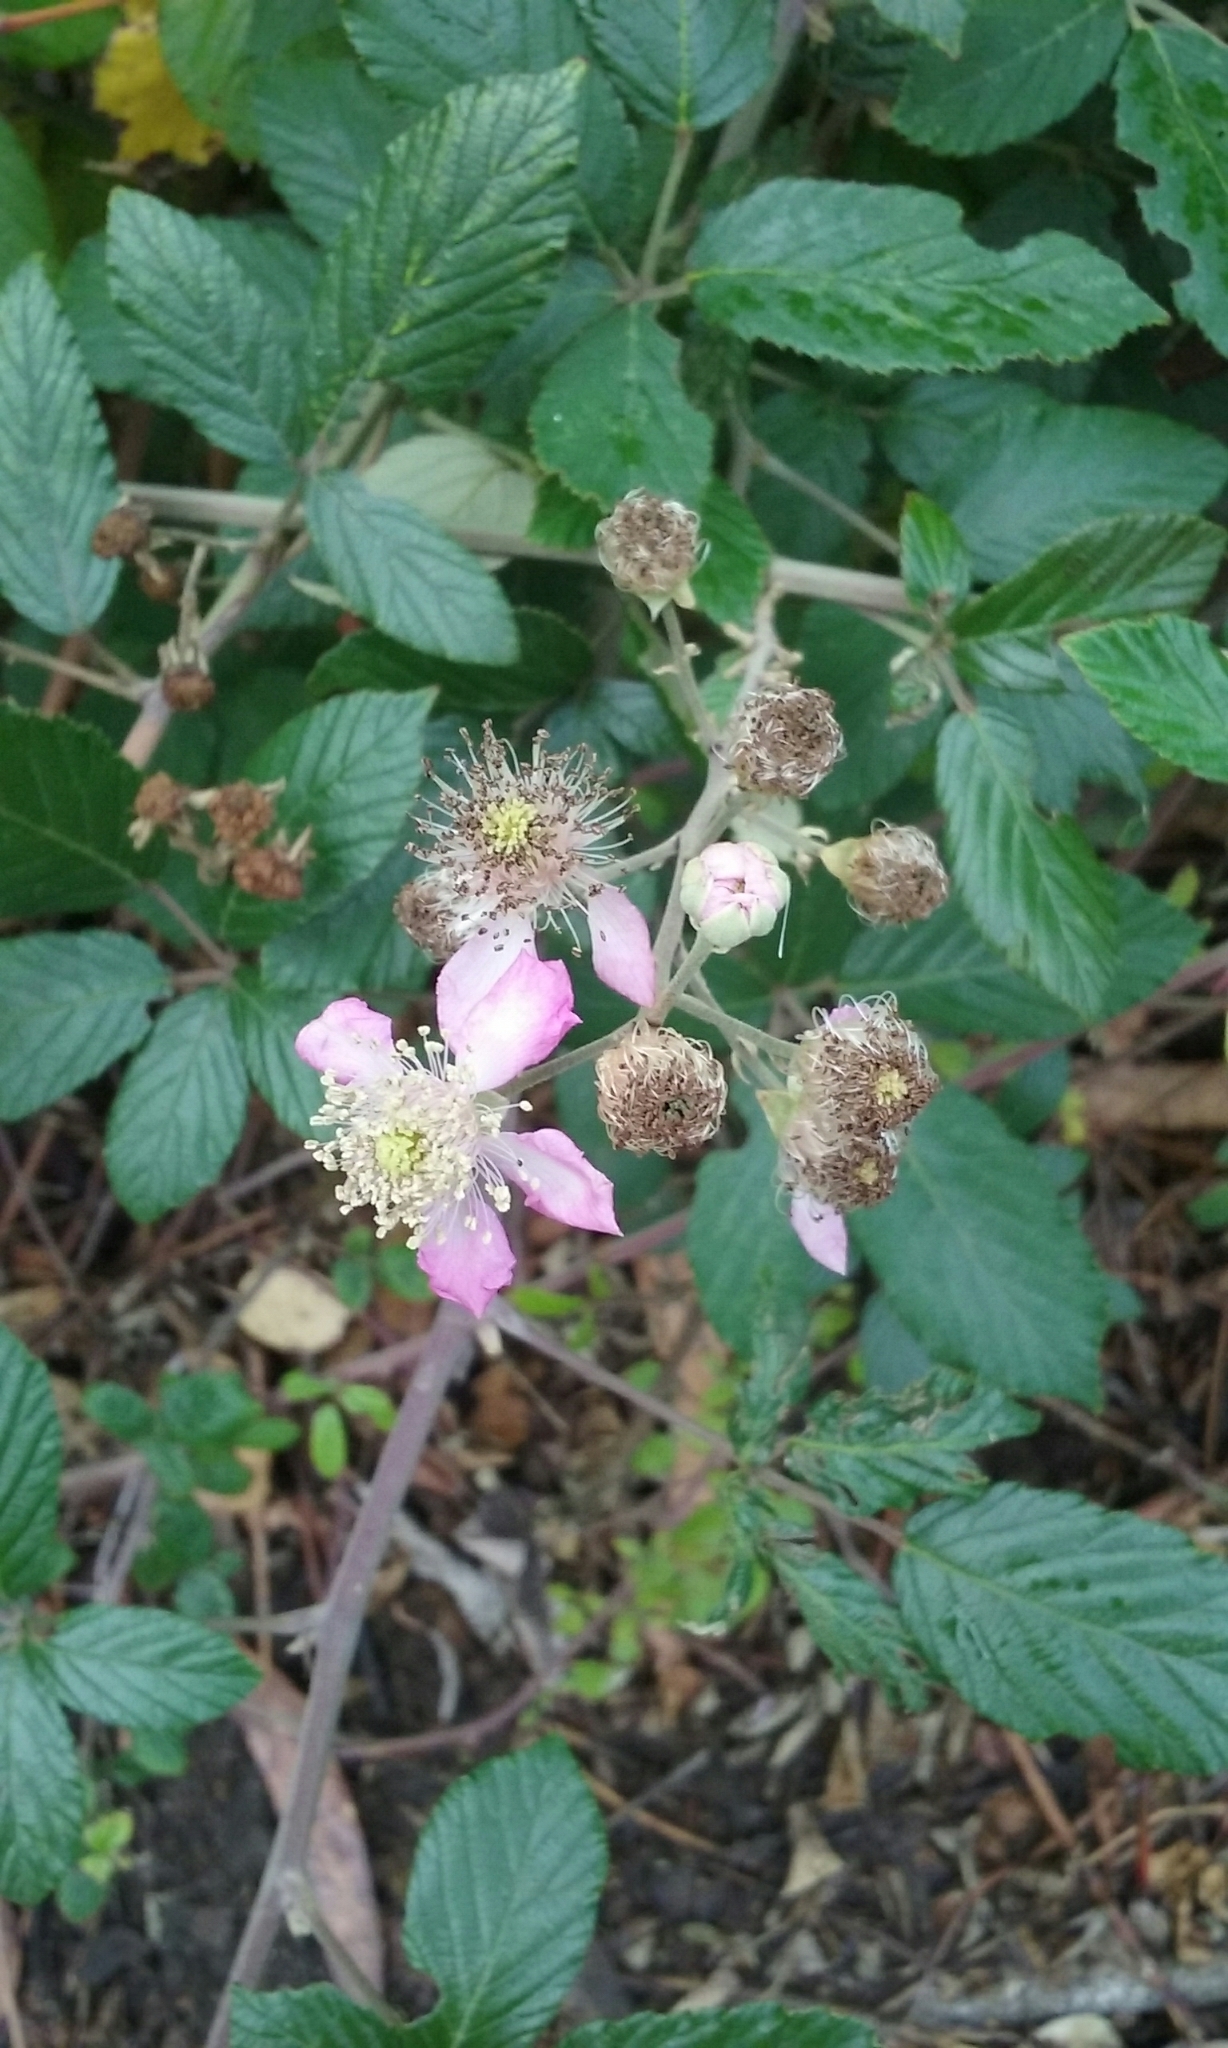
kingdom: Plantae
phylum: Tracheophyta
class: Magnoliopsida
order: Rosales
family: Rosaceae
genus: Rubus
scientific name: Rubus ulmifolius
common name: Elmleaf blackberry
